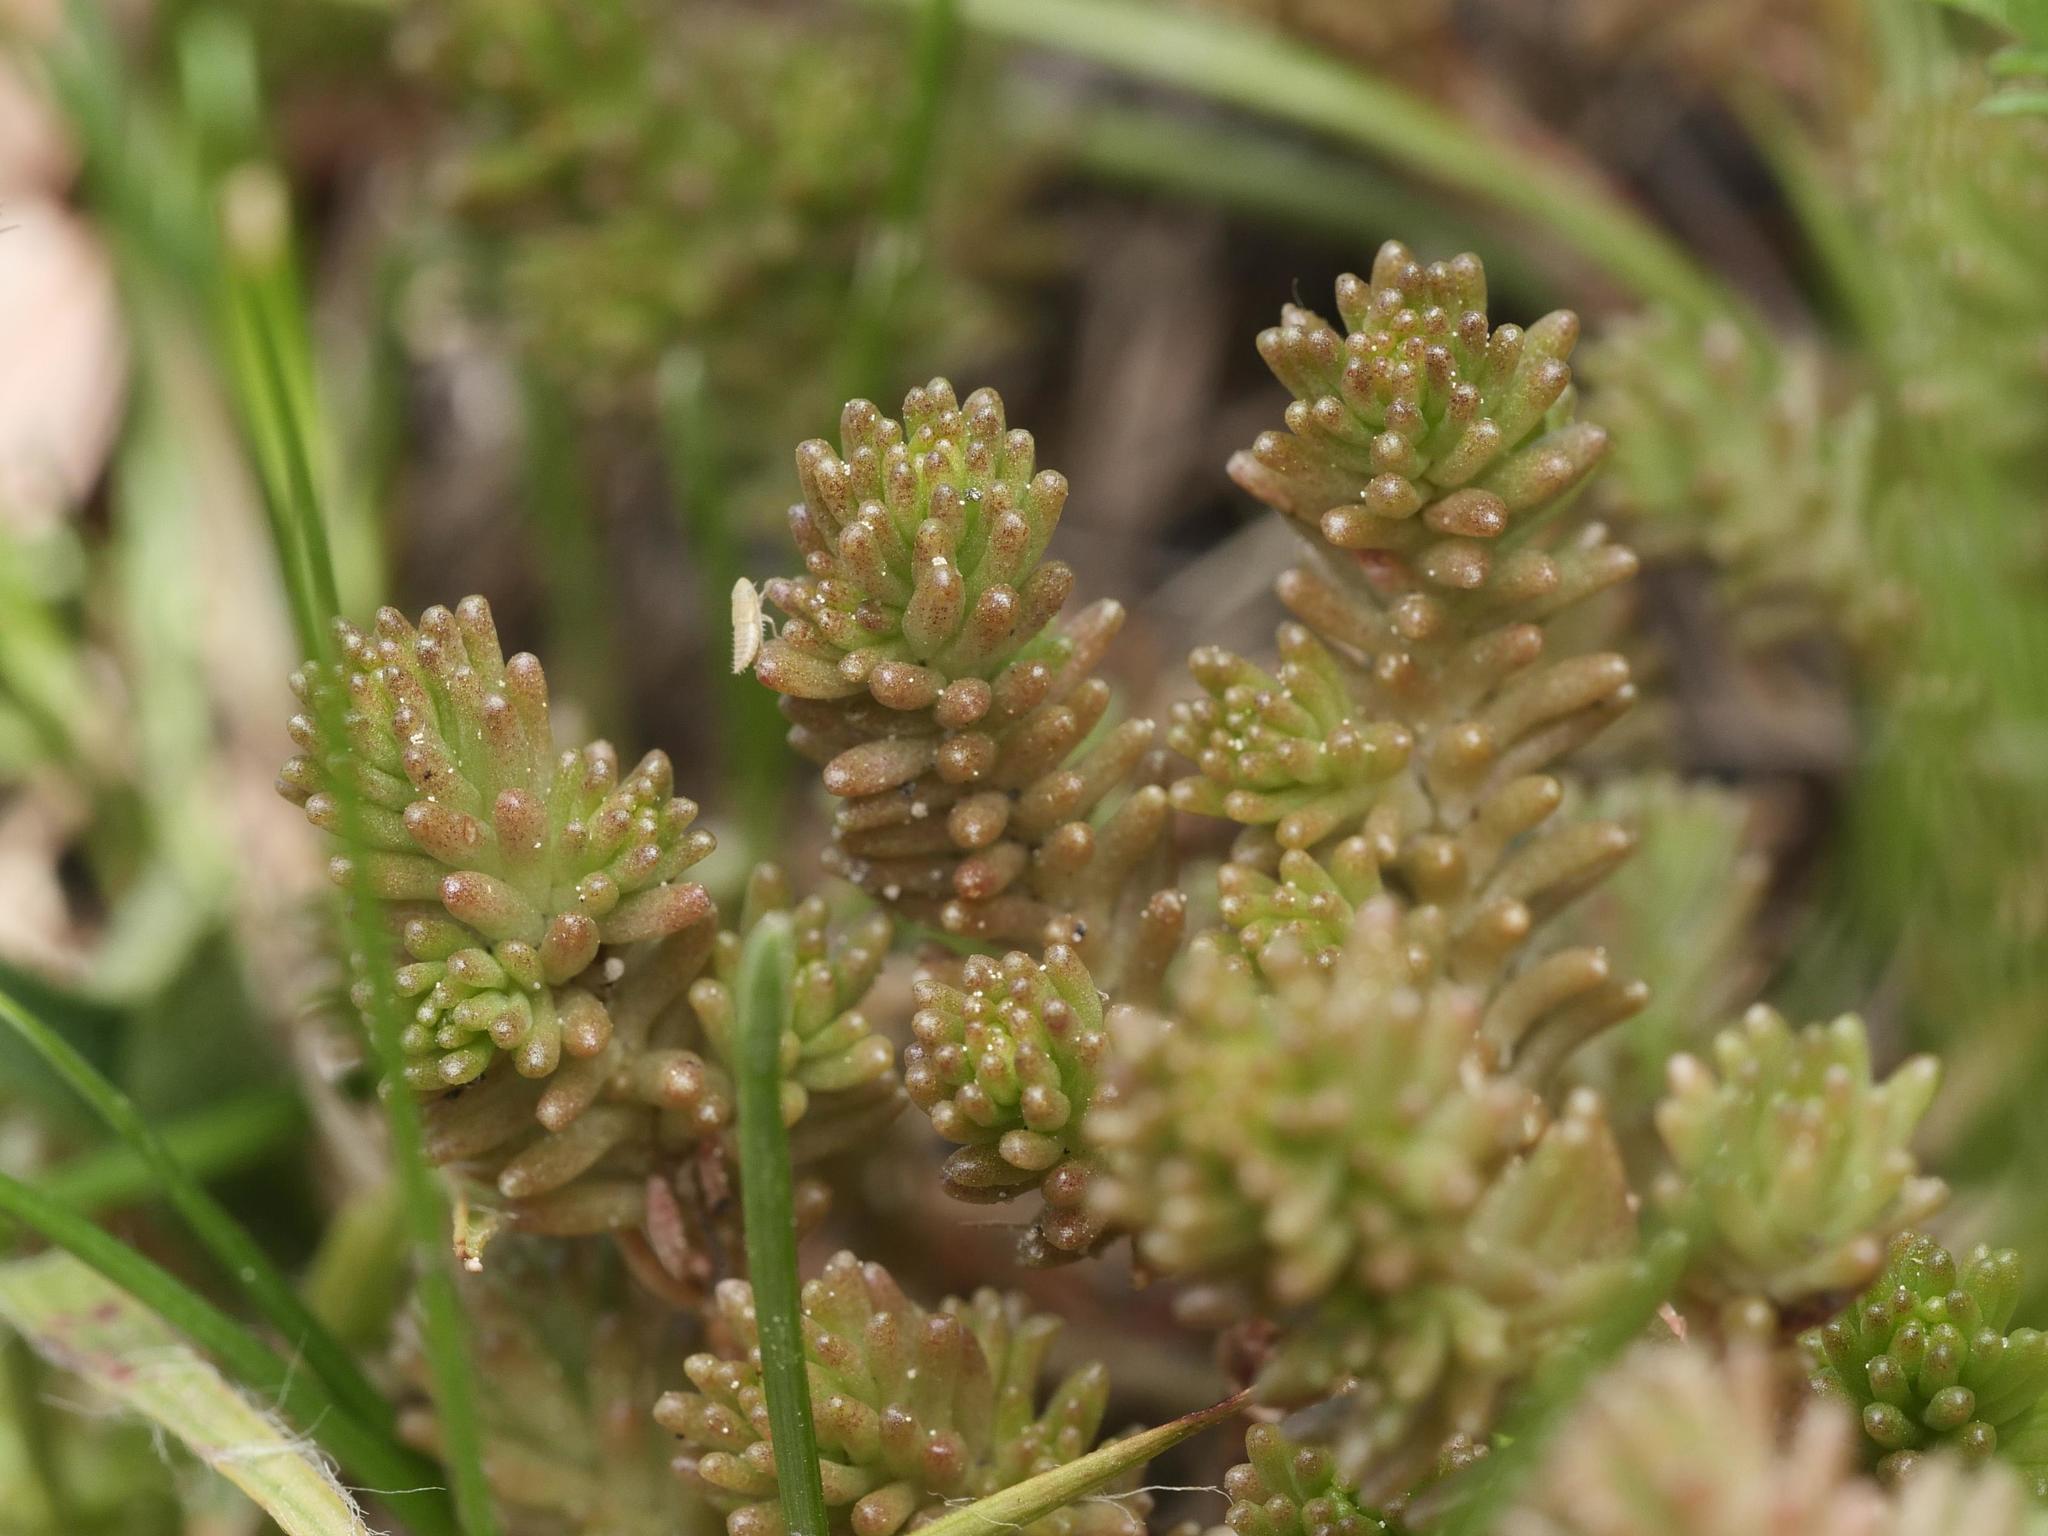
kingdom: Plantae
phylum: Tracheophyta
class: Magnoliopsida
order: Saxifragales
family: Crassulaceae
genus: Sedum
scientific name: Sedum sexangulare
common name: Tasteless stonecrop
